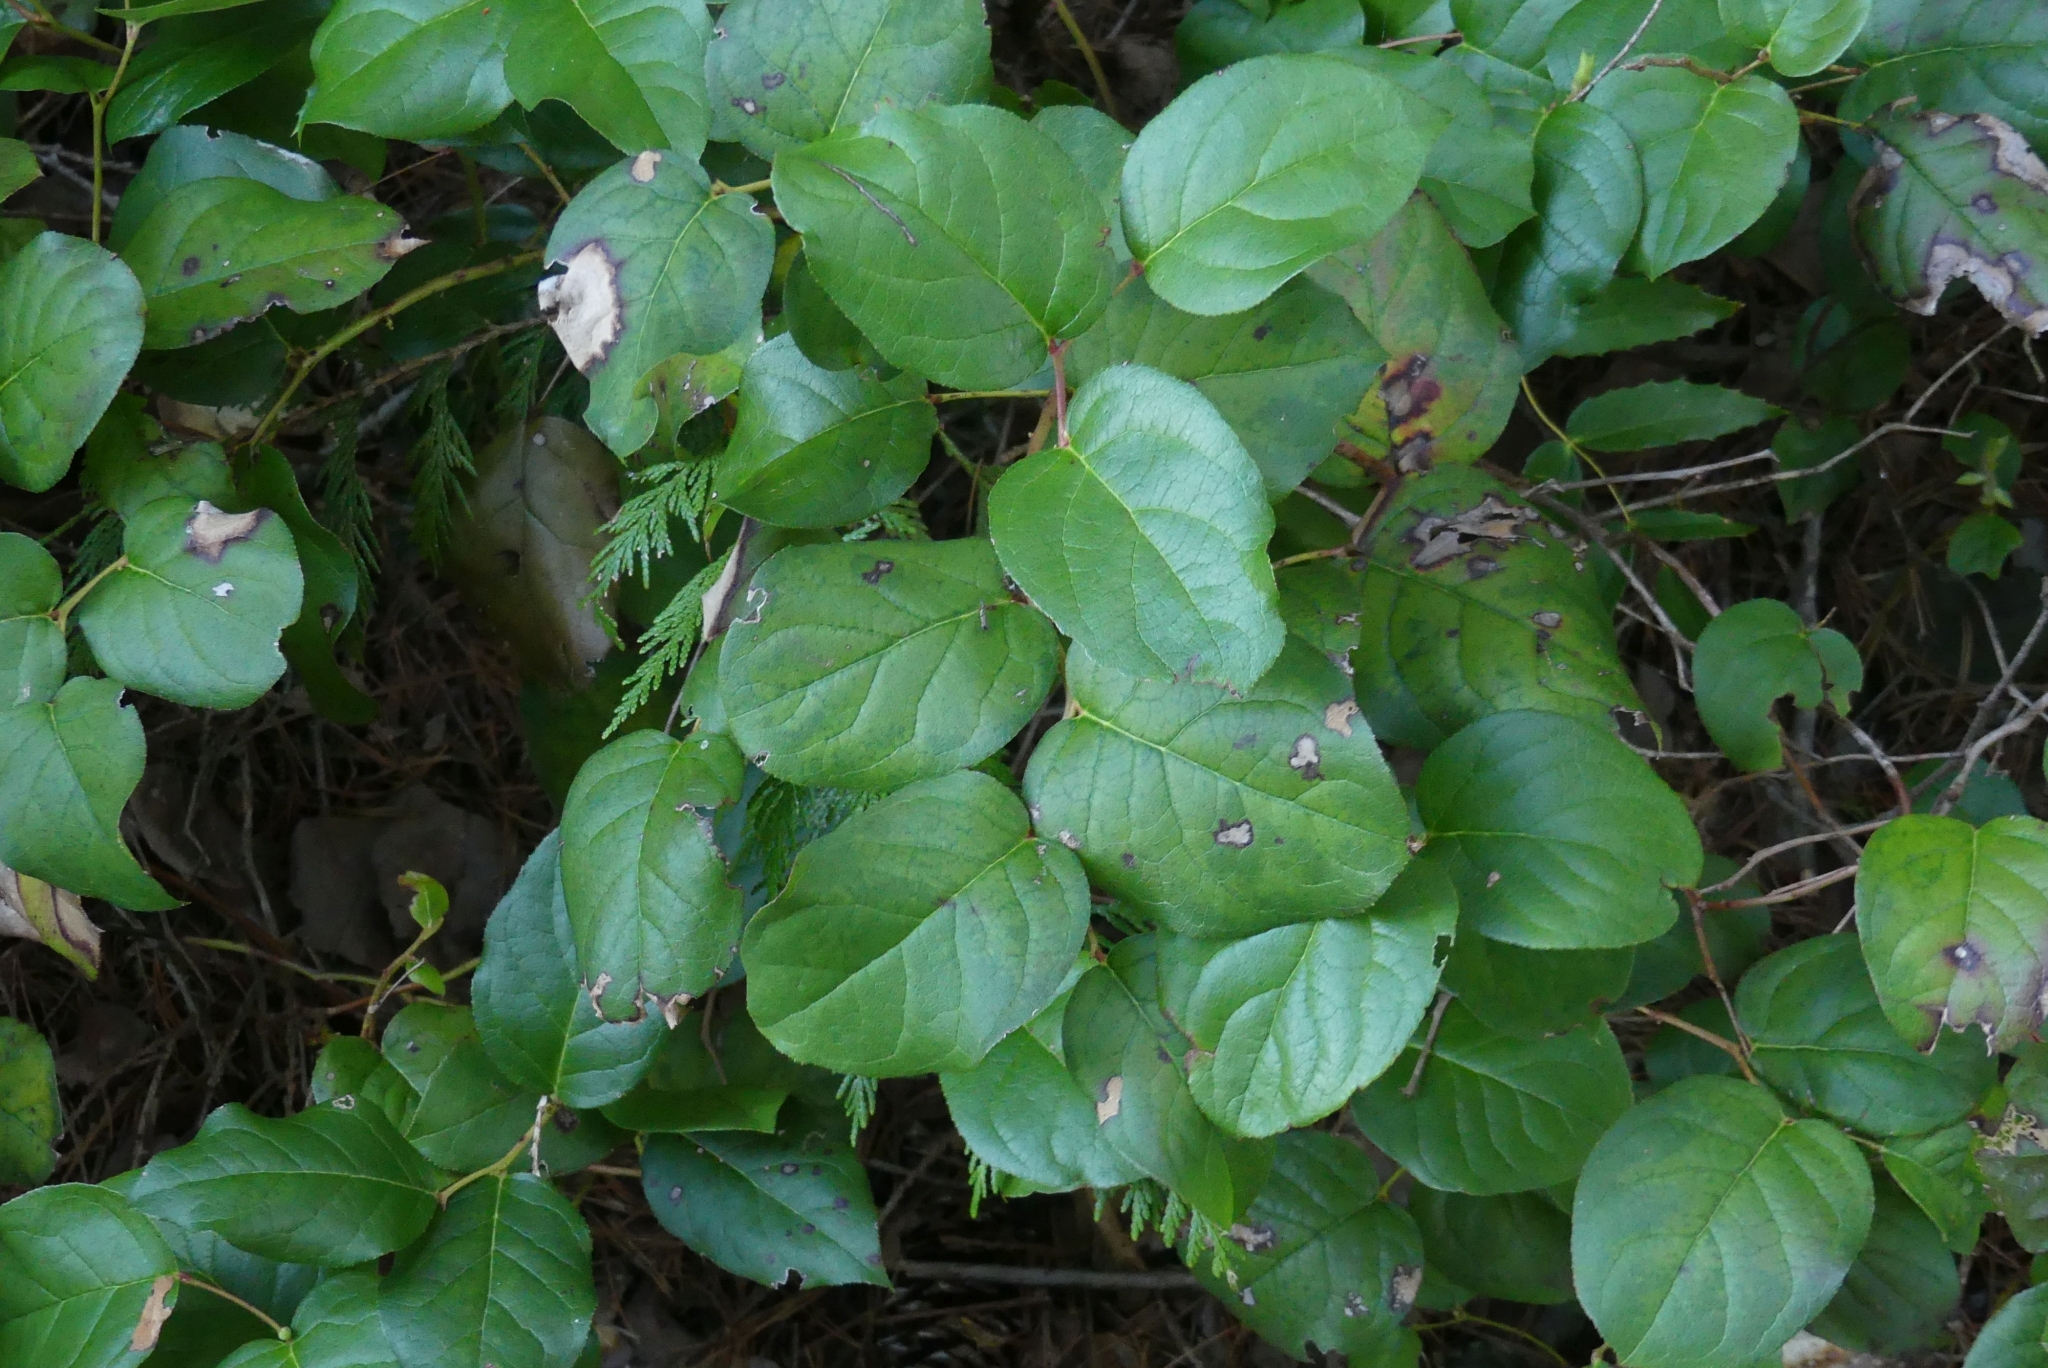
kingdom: Plantae
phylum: Tracheophyta
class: Magnoliopsida
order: Ericales
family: Ericaceae
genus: Gaultheria
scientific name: Gaultheria shallon
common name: Shallon
